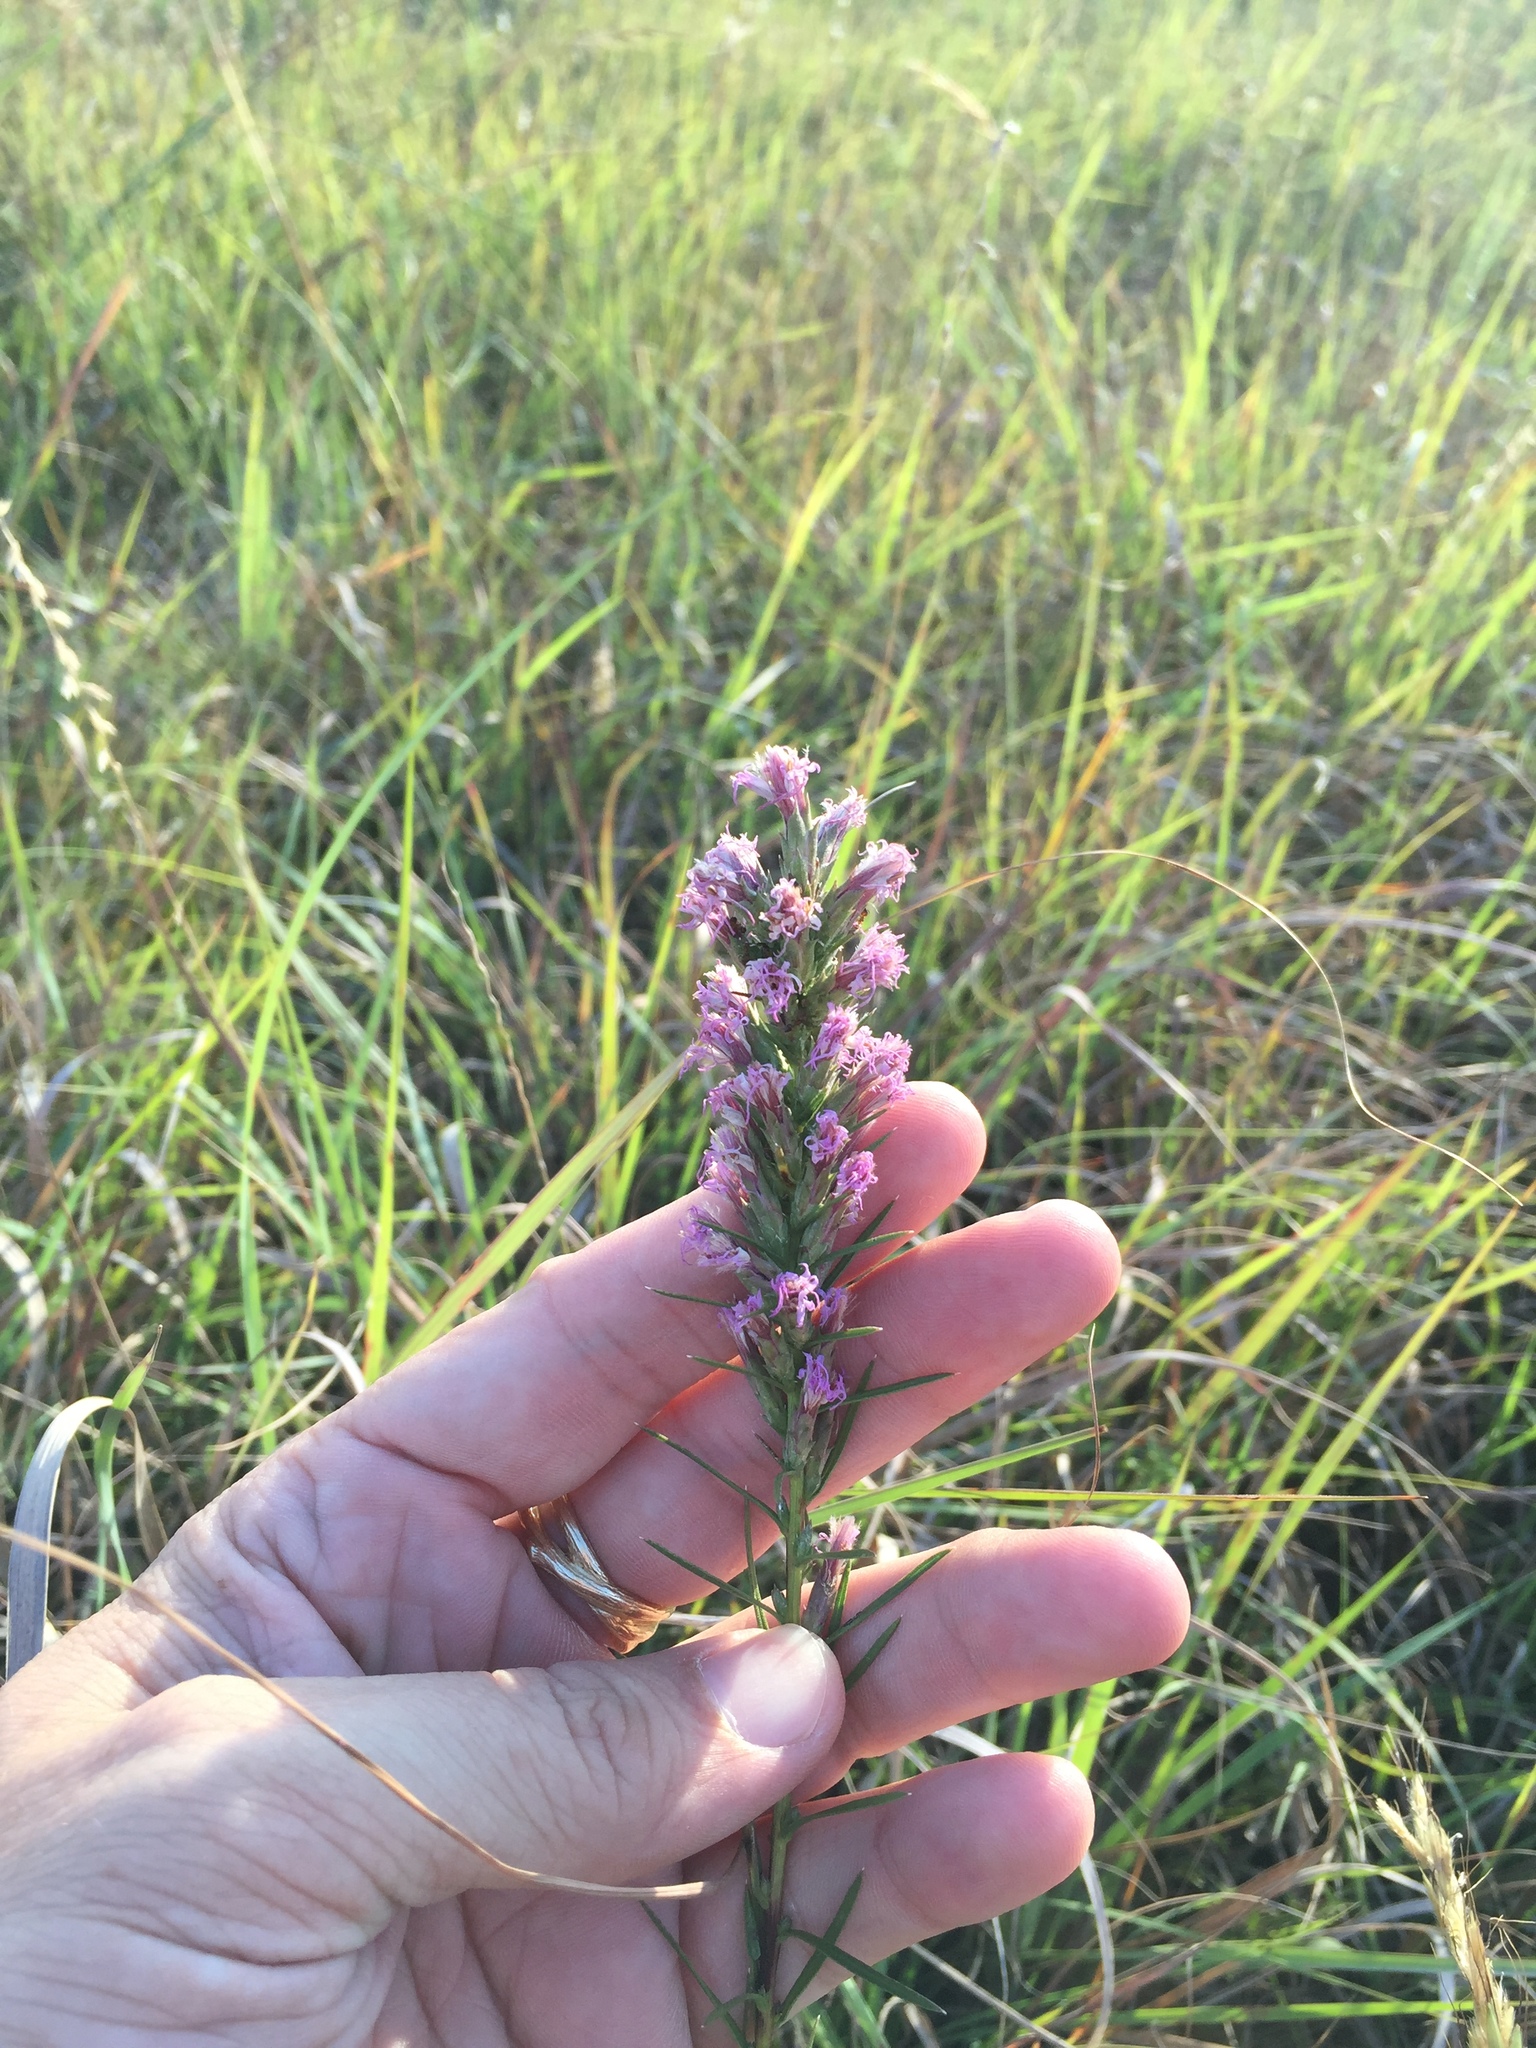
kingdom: Plantae
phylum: Tracheophyta
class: Magnoliopsida
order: Asterales
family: Asteraceae
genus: Liatris
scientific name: Liatris punctata
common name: Dotted gayfeather
